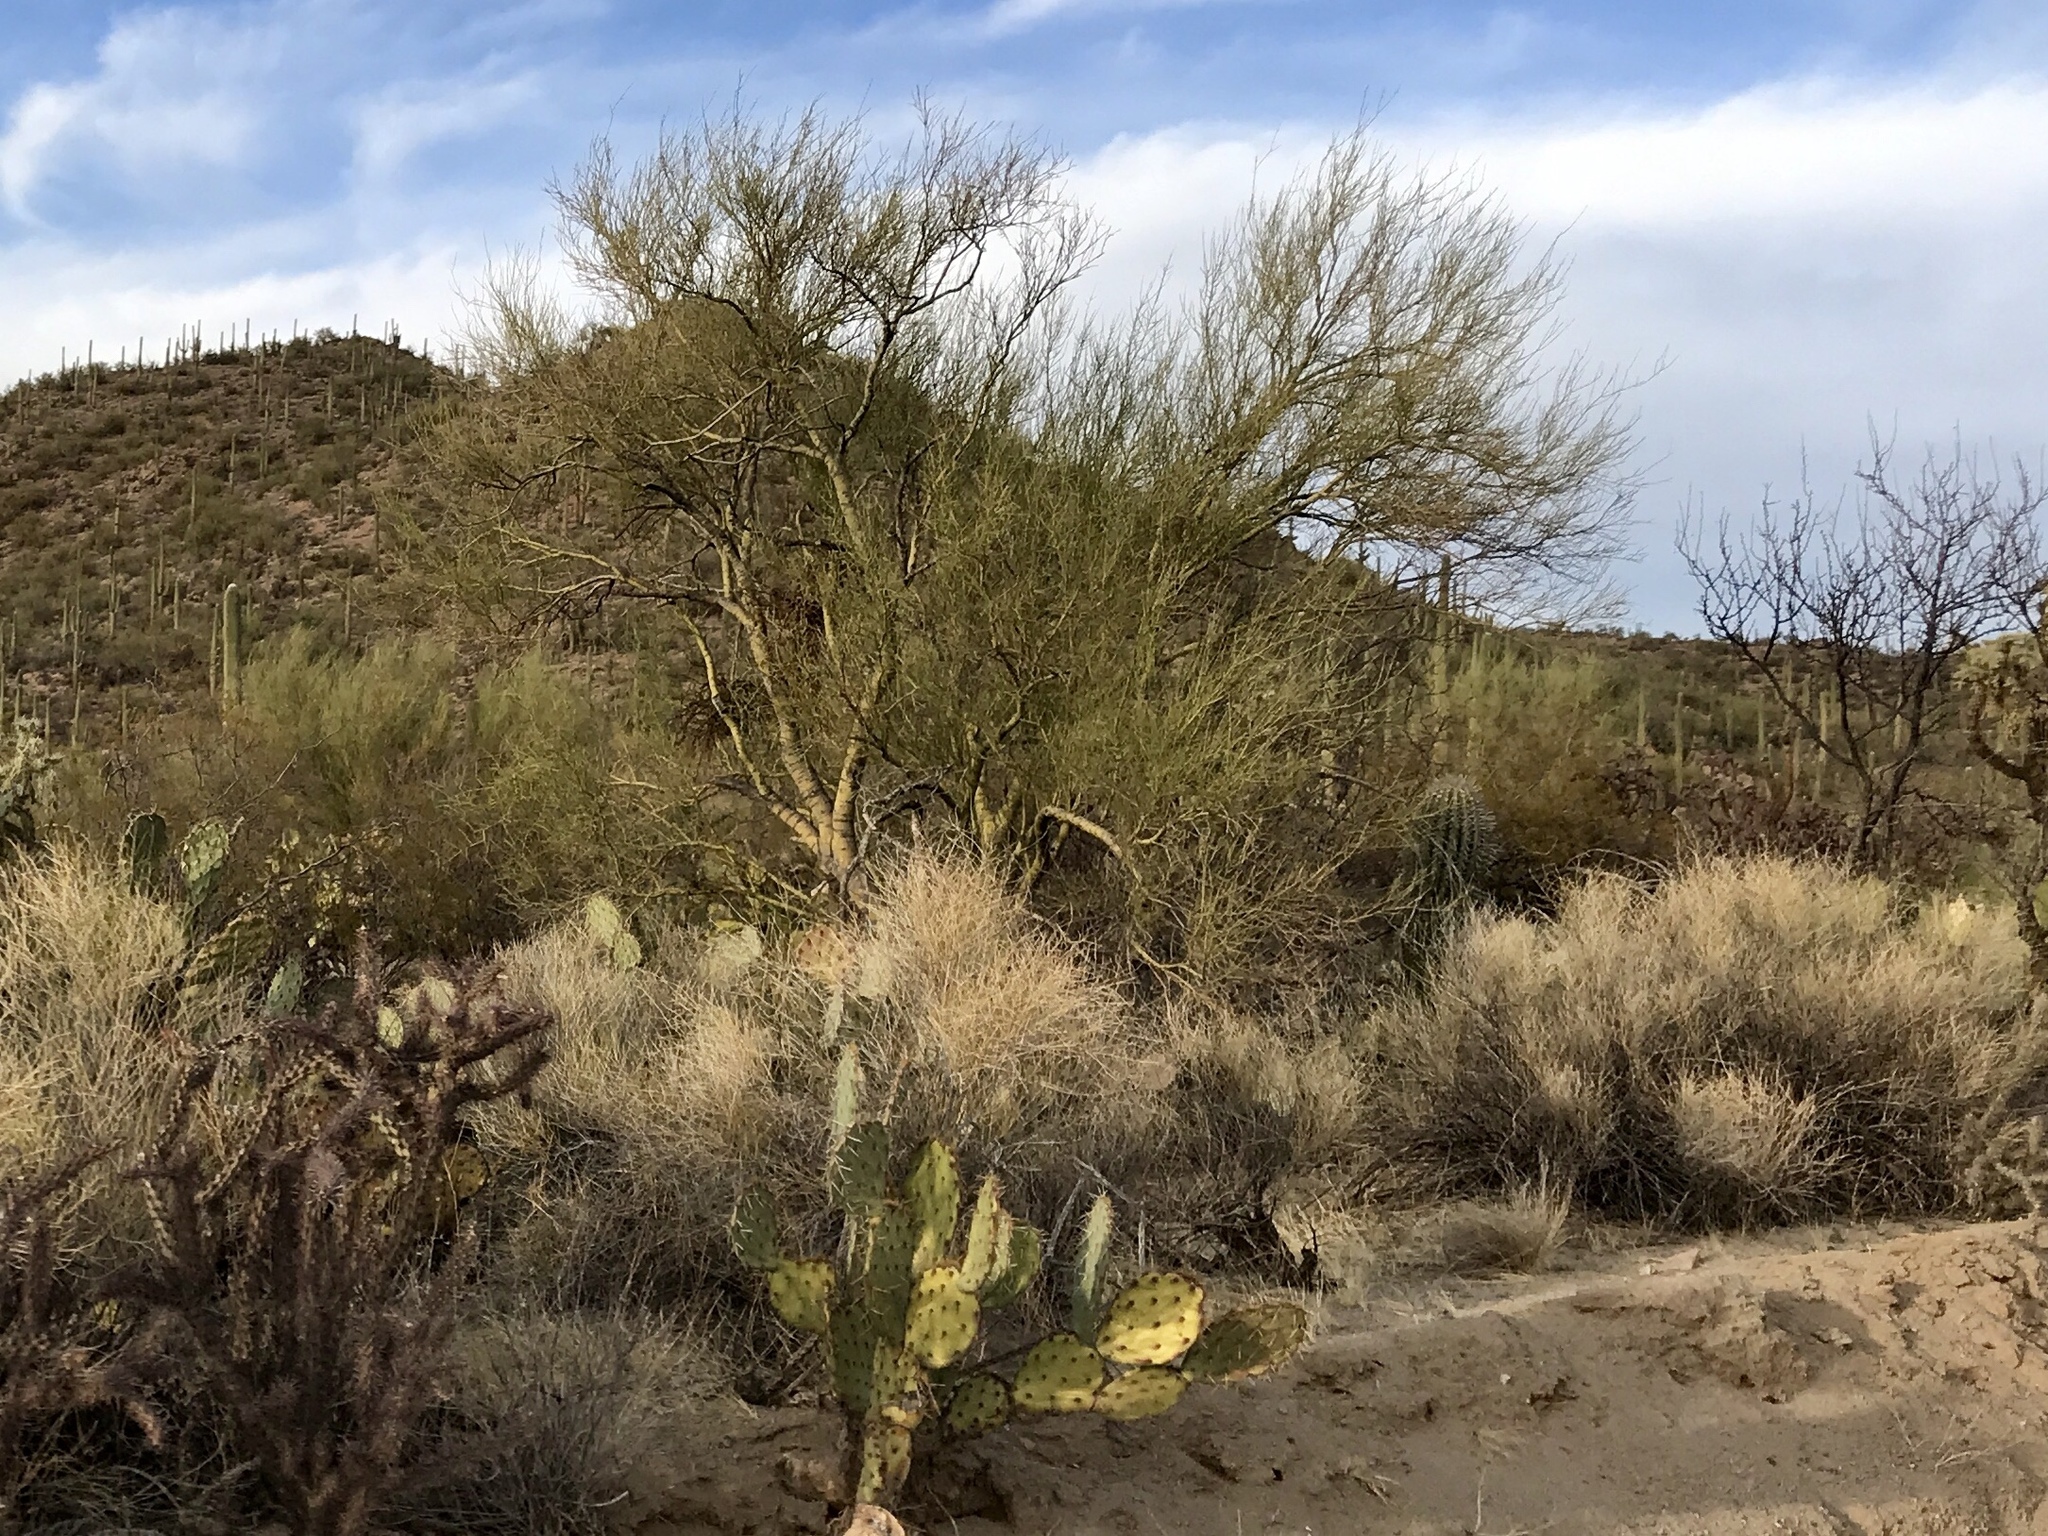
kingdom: Plantae
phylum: Tracheophyta
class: Magnoliopsida
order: Fabales
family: Fabaceae
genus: Parkinsonia
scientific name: Parkinsonia microphylla
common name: Yellow paloverde
